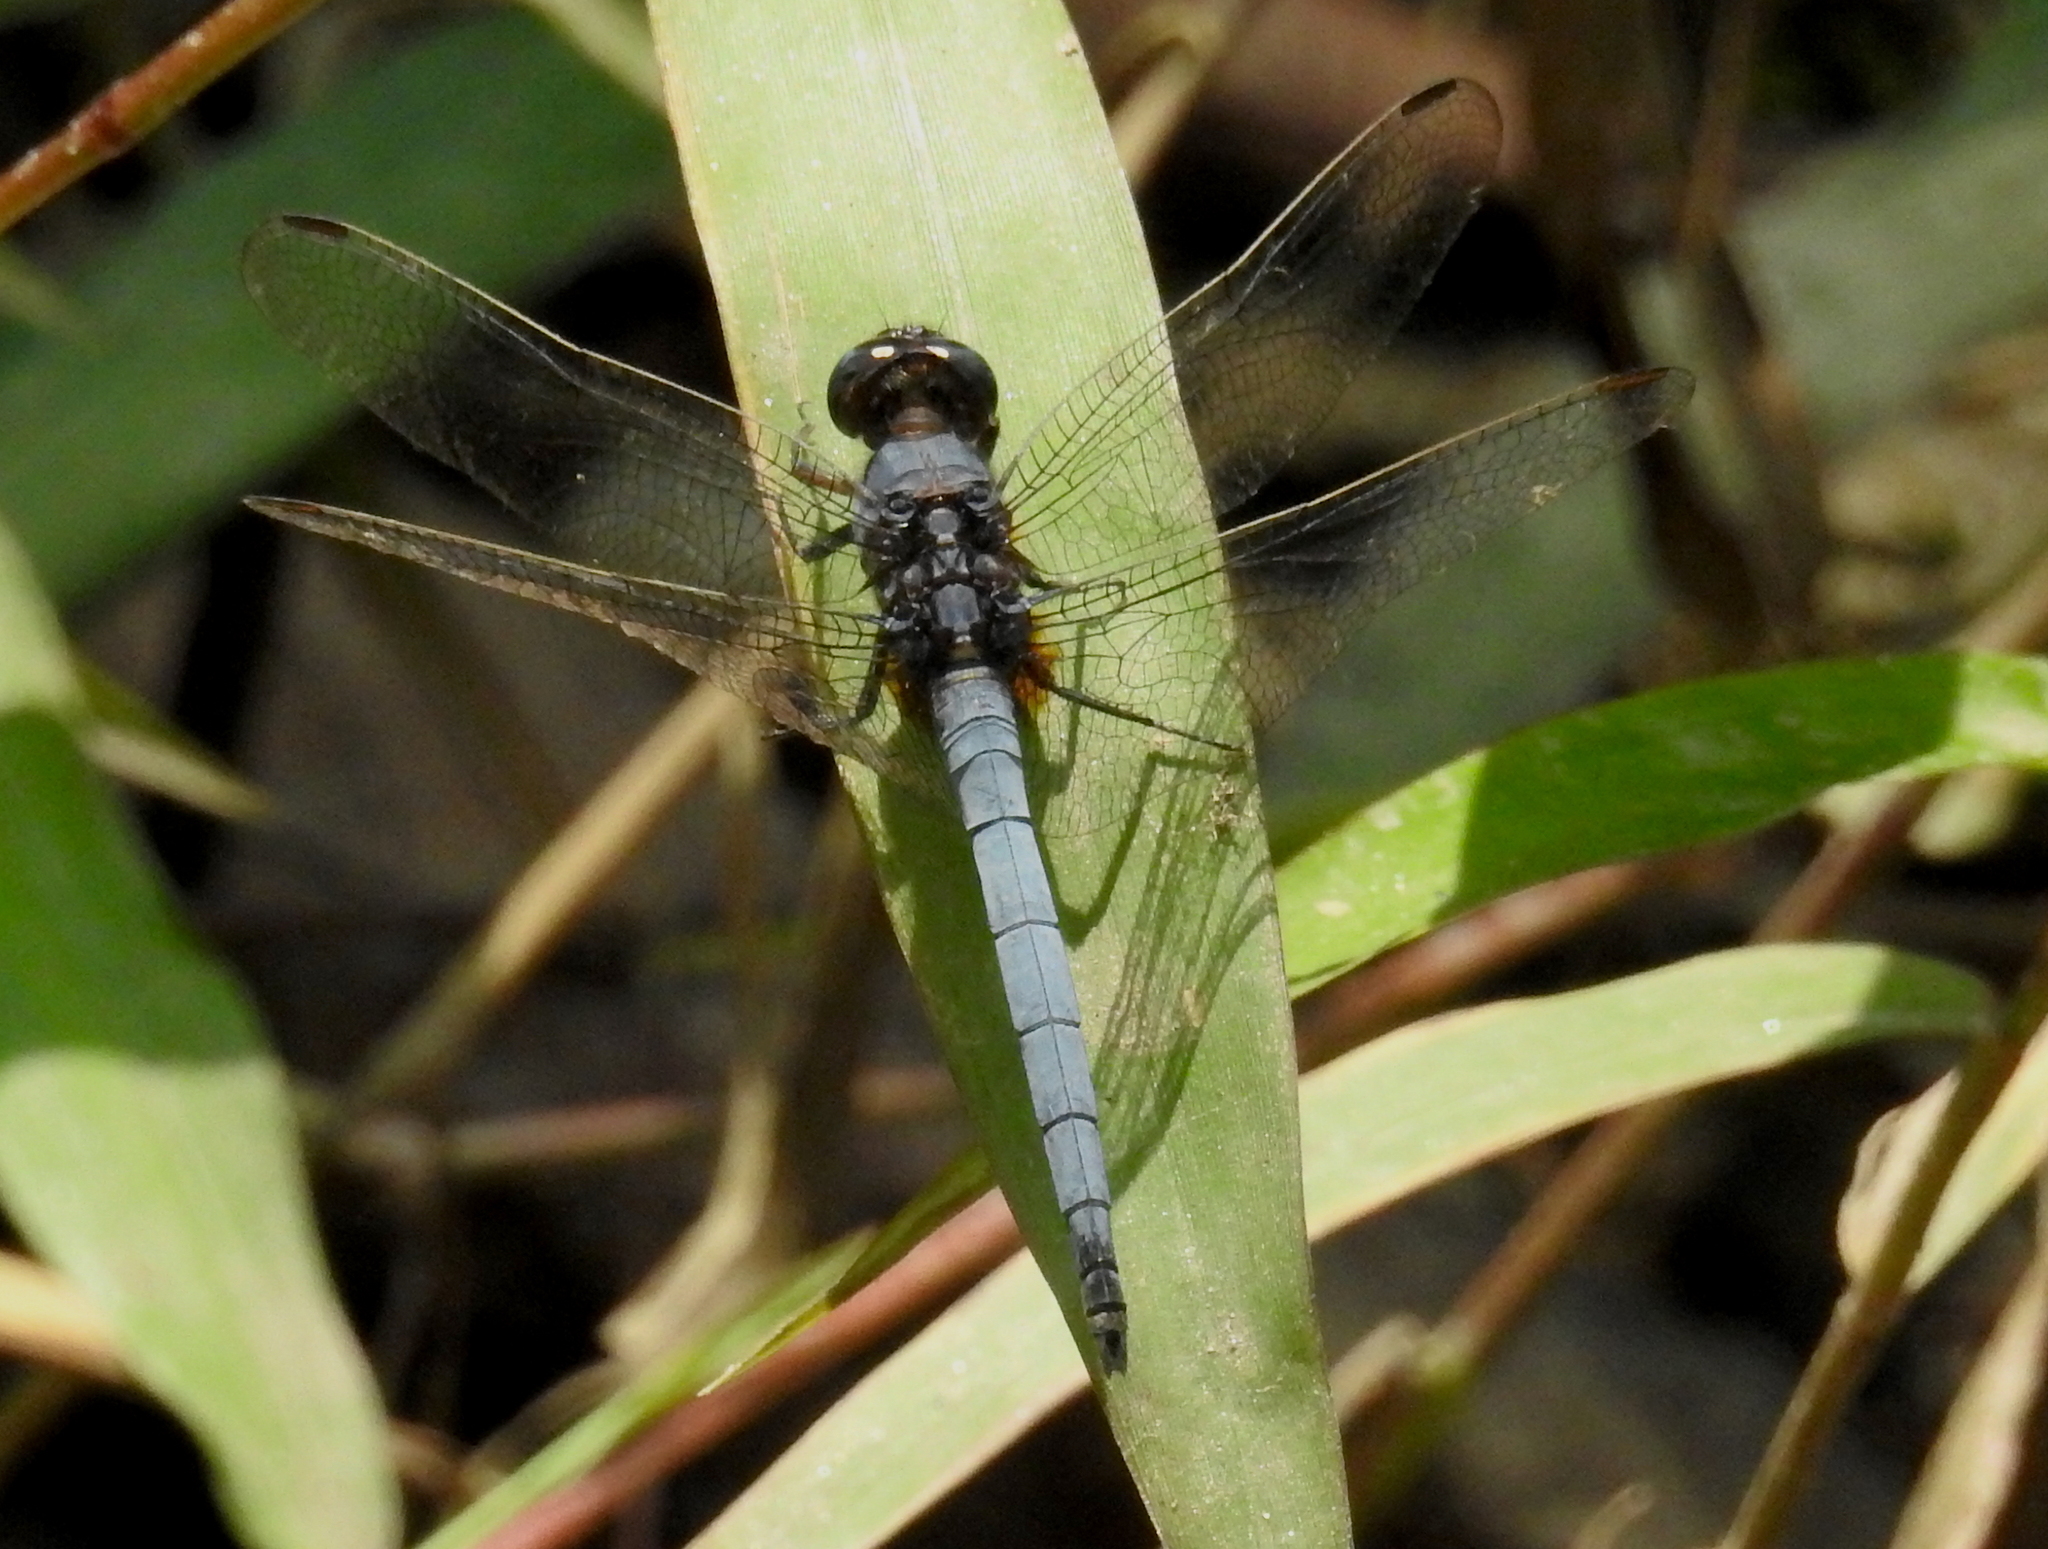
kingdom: Animalia
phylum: Arthropoda
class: Insecta
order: Odonata
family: Libellulidae
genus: Orthetrum
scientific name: Orthetrum glaucum
